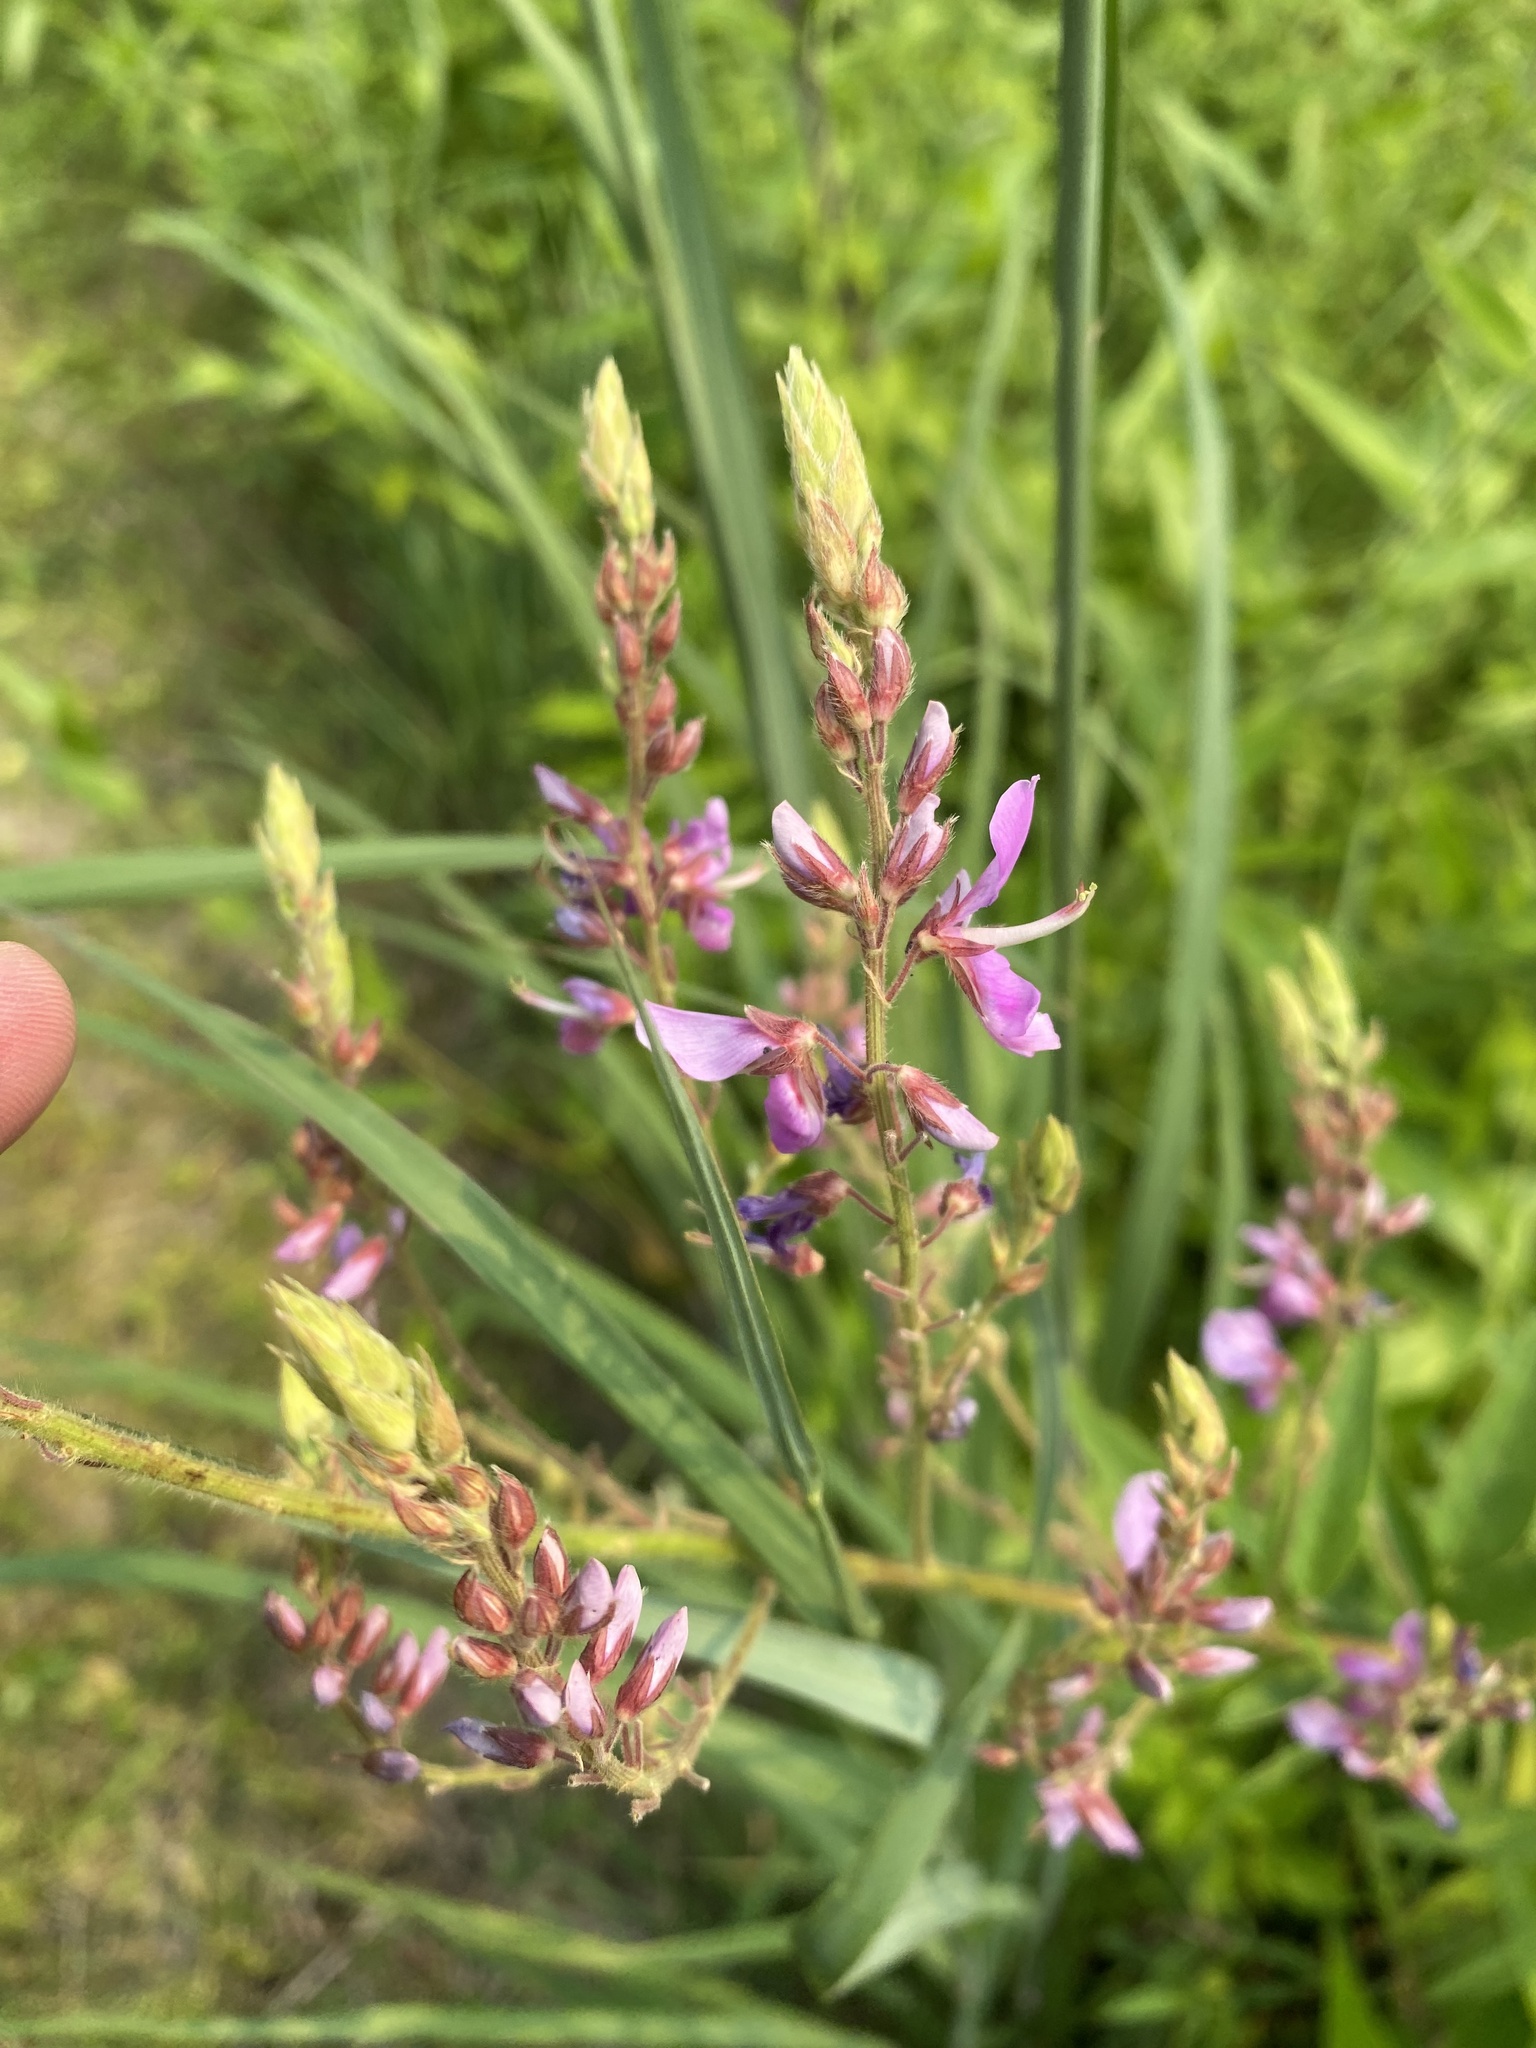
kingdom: Plantae
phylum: Tracheophyta
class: Magnoliopsida
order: Fabales
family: Fabaceae
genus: Desmodium
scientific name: Desmodium canadense
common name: Canada tick-trefoil
